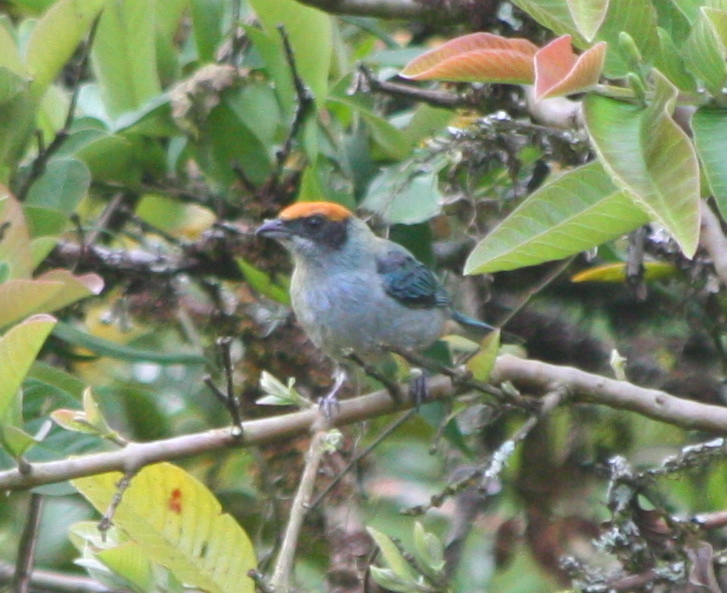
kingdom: Animalia
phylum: Chordata
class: Aves
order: Passeriformes
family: Thraupidae
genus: Stilpnia
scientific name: Stilpnia vitriolina
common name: Scrub tanager
